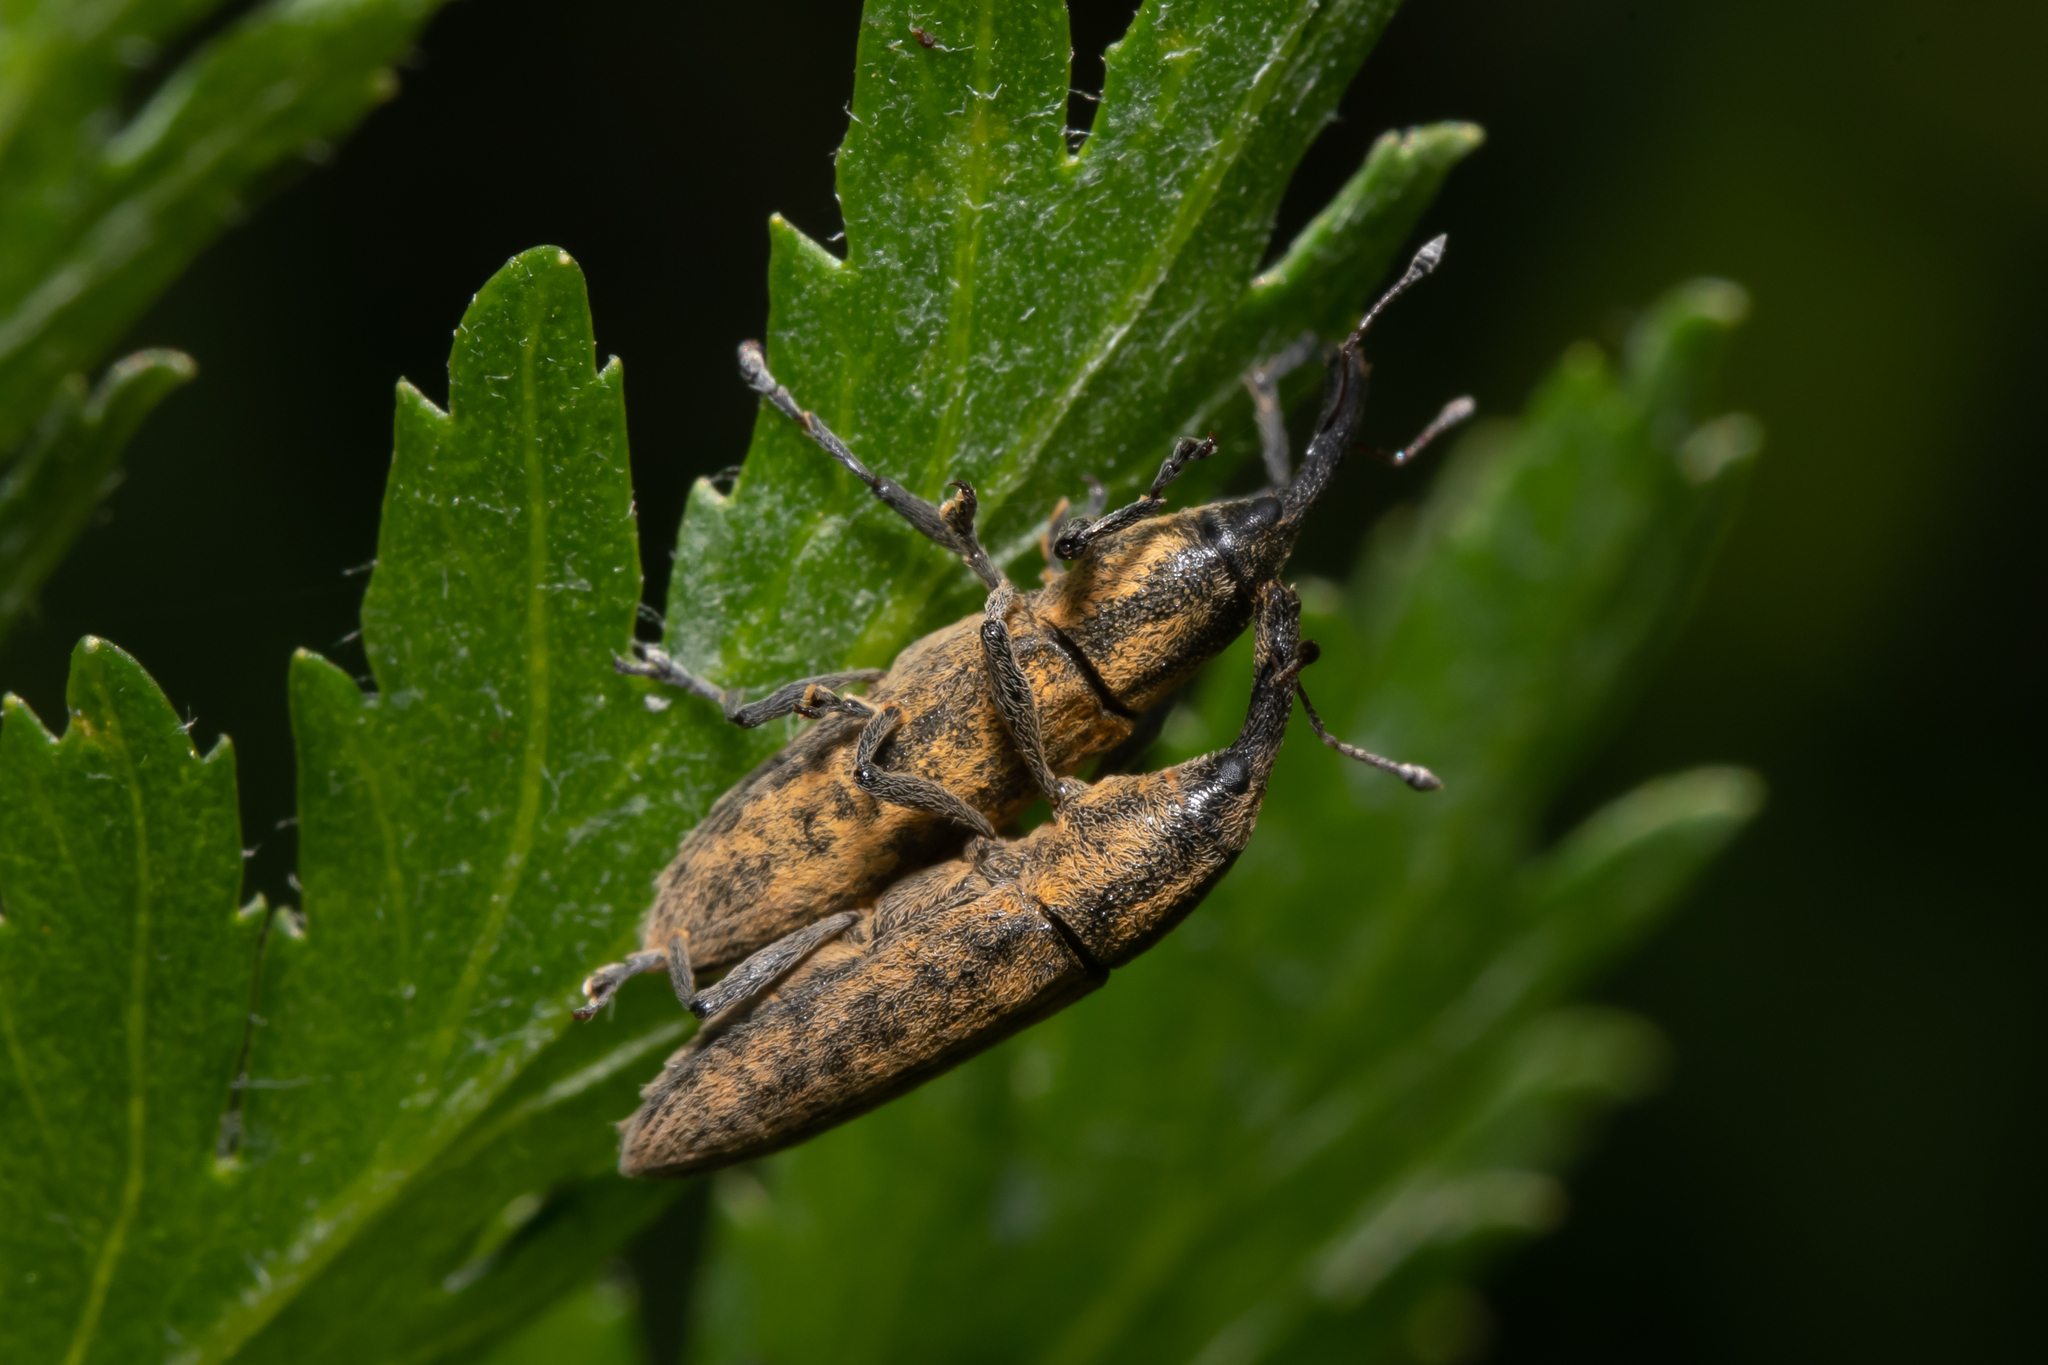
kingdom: Animalia
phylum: Arthropoda
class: Insecta
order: Coleoptera
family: Curculionidae
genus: Lixus
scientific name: Lixus fasciculatus
